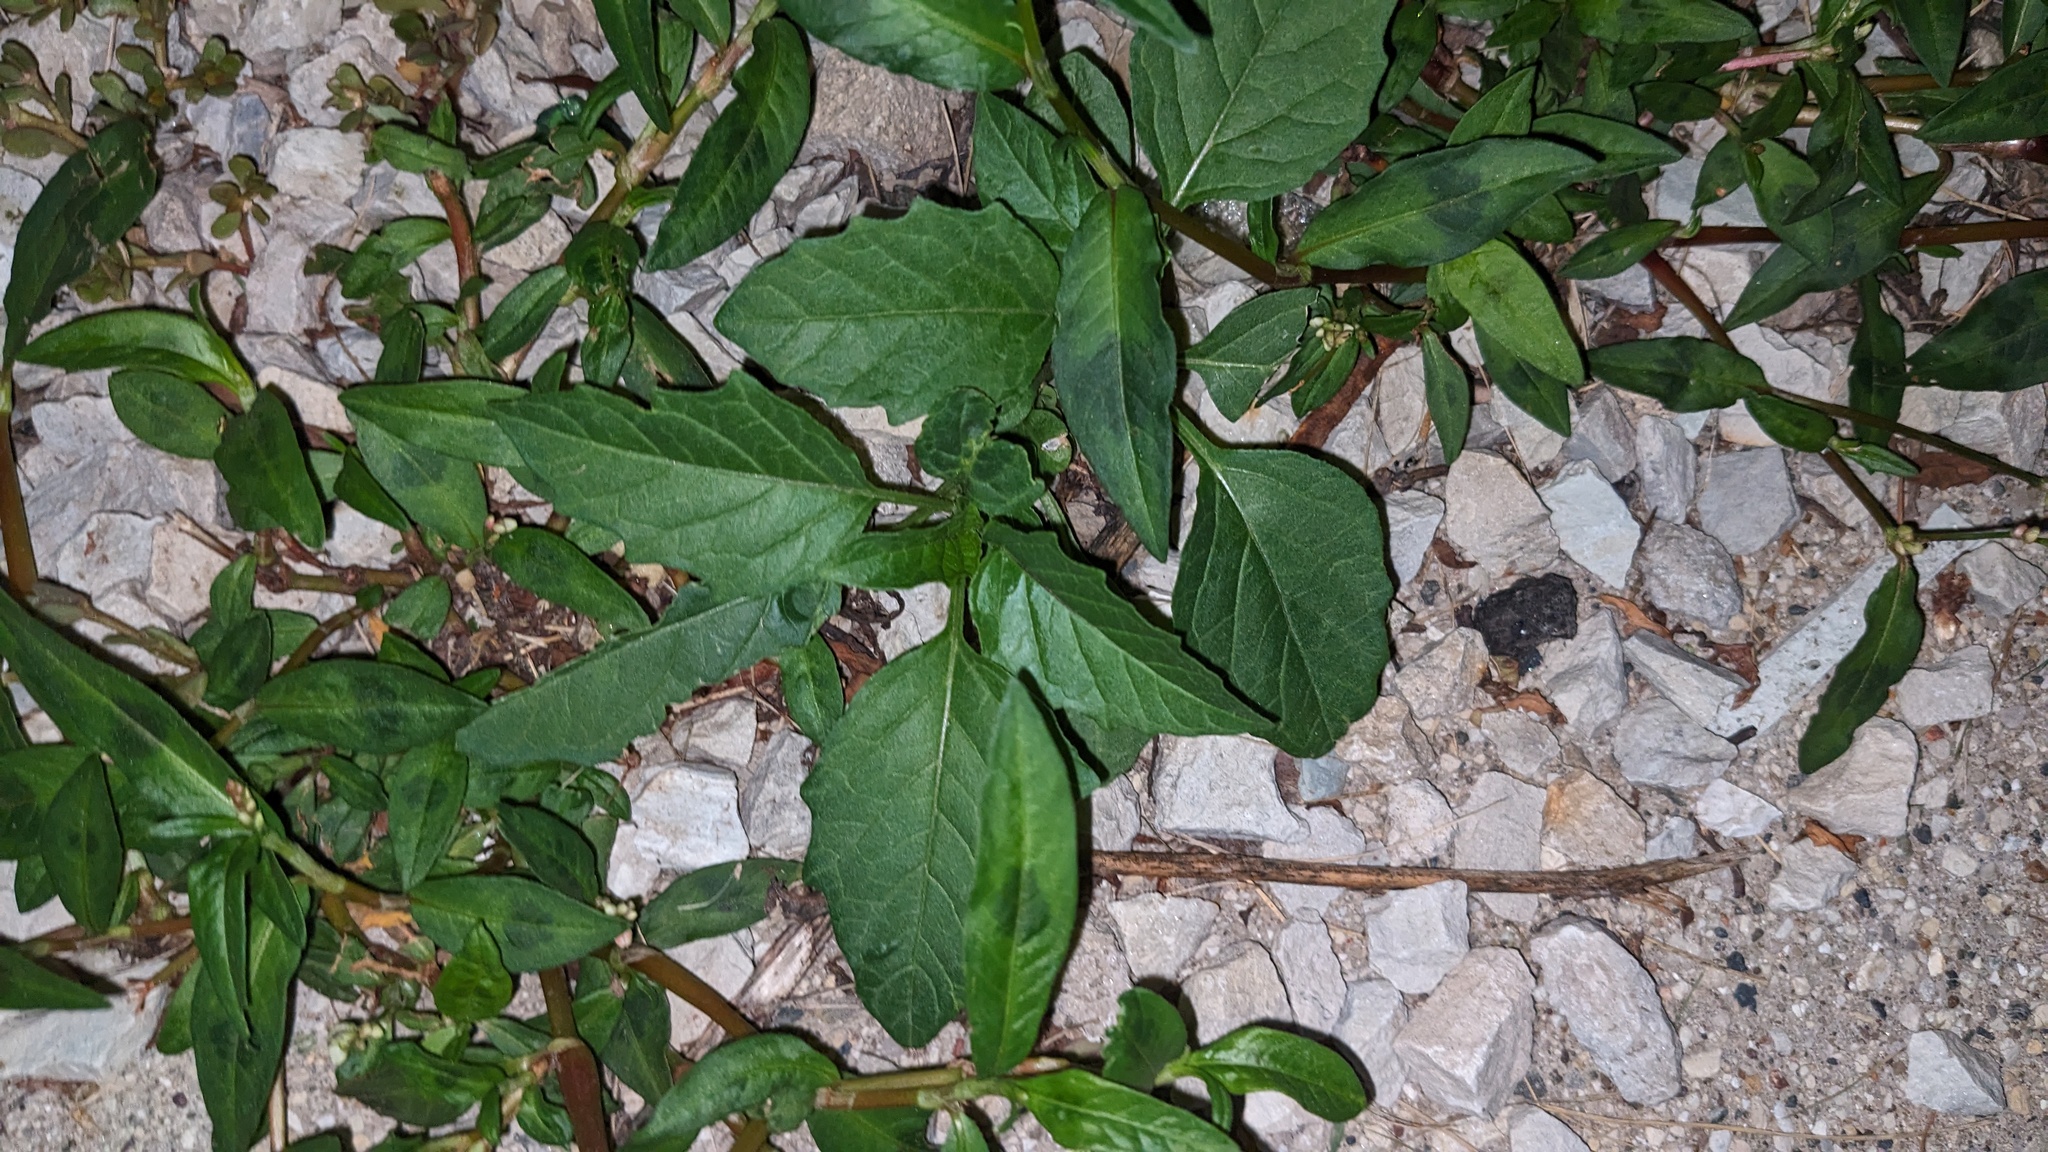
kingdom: Plantae
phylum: Tracheophyta
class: Magnoliopsida
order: Solanales
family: Solanaceae
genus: Solanum
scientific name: Solanum emulans
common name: Eastern black nightshade
